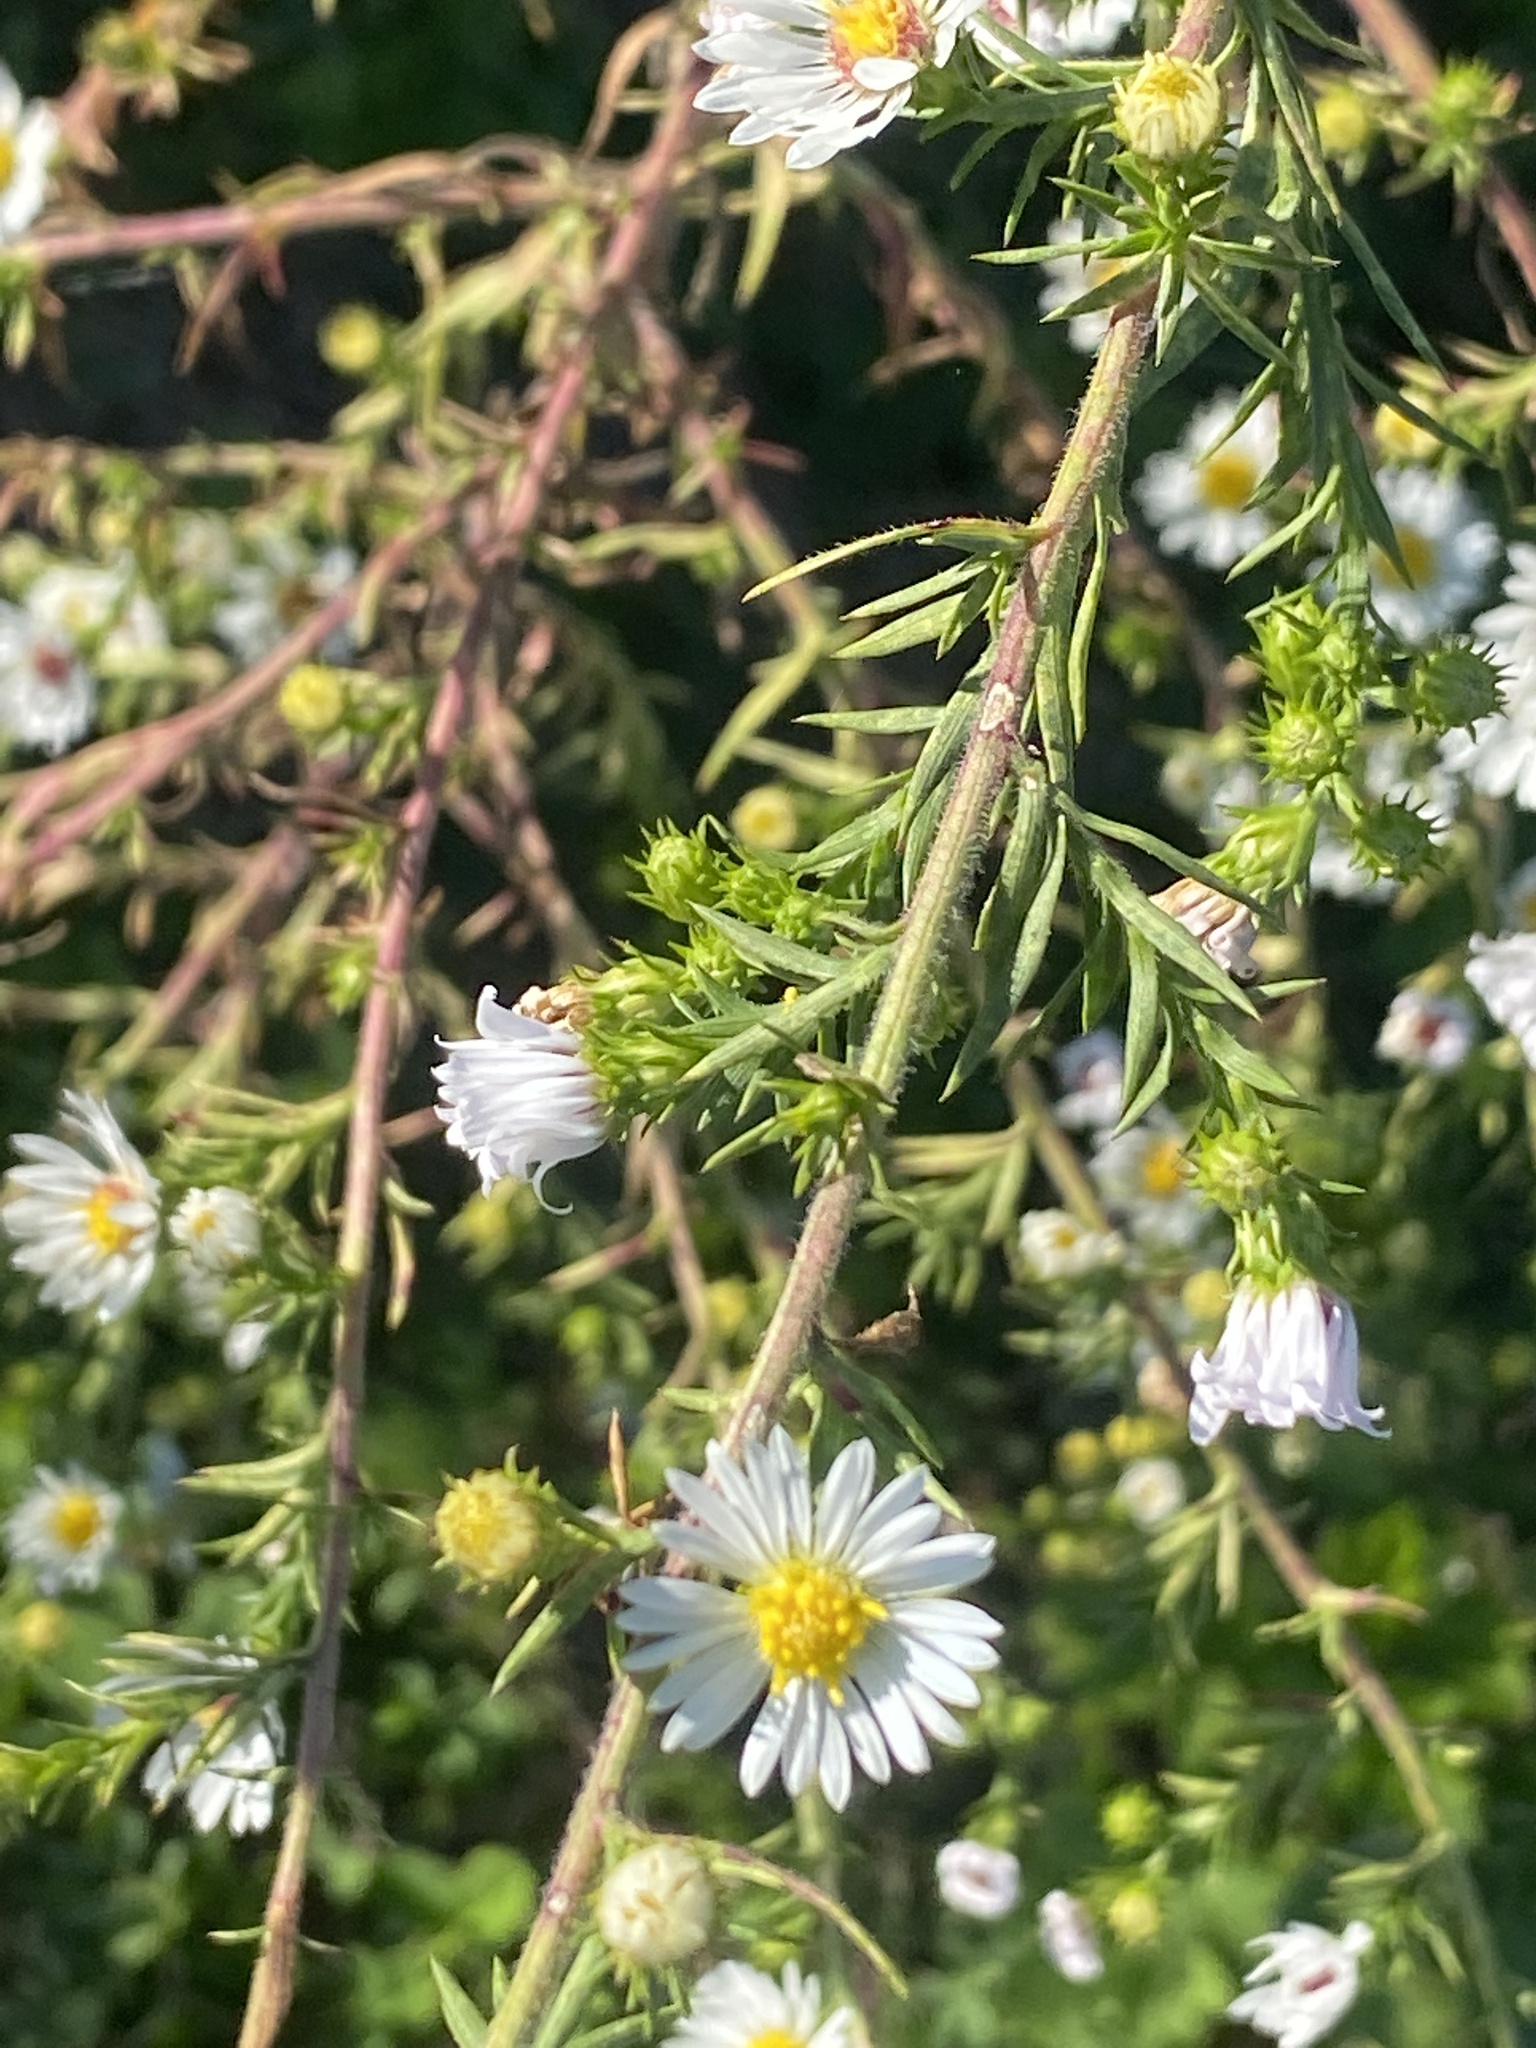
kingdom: Plantae
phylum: Tracheophyta
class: Magnoliopsida
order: Asterales
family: Asteraceae
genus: Symphyotrichum
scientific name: Symphyotrichum pilosum
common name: Awl aster
